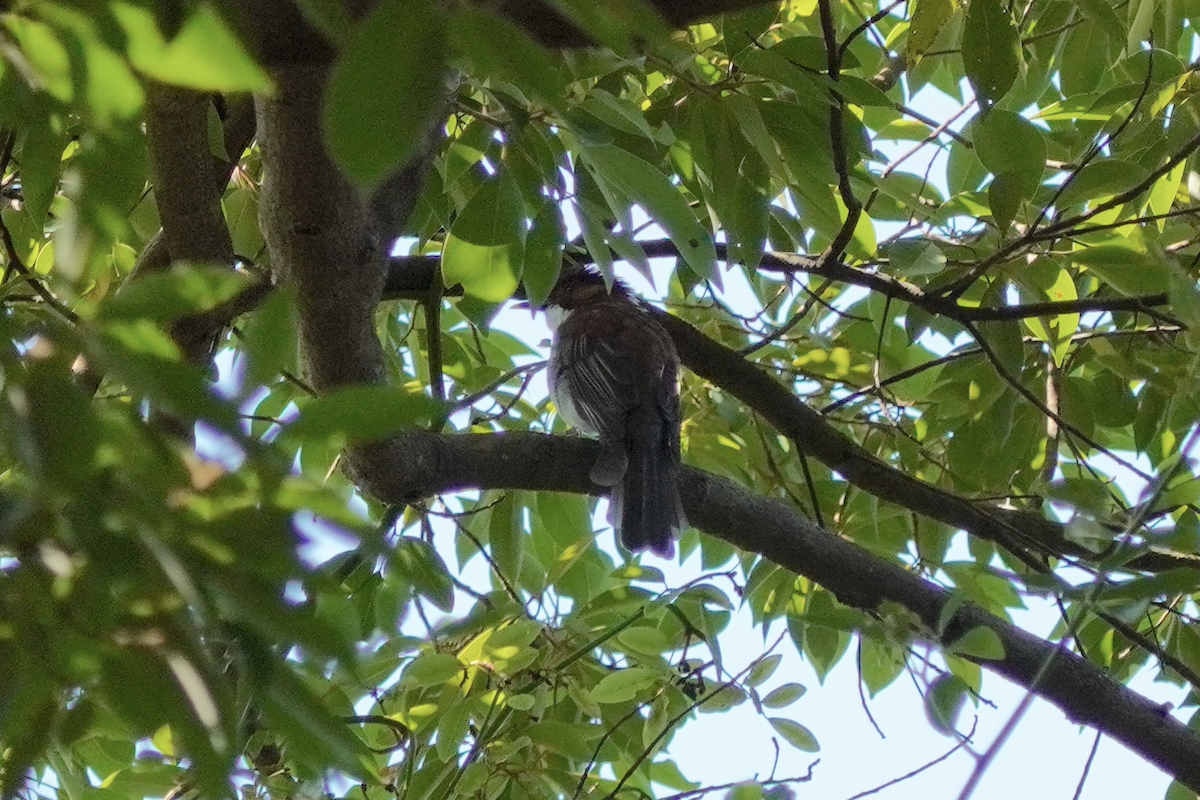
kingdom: Animalia
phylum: Chordata
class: Aves
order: Passeriformes
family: Pycnonotidae
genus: Hemixos
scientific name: Hemixos castanonotus
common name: Chestnut bulbul
